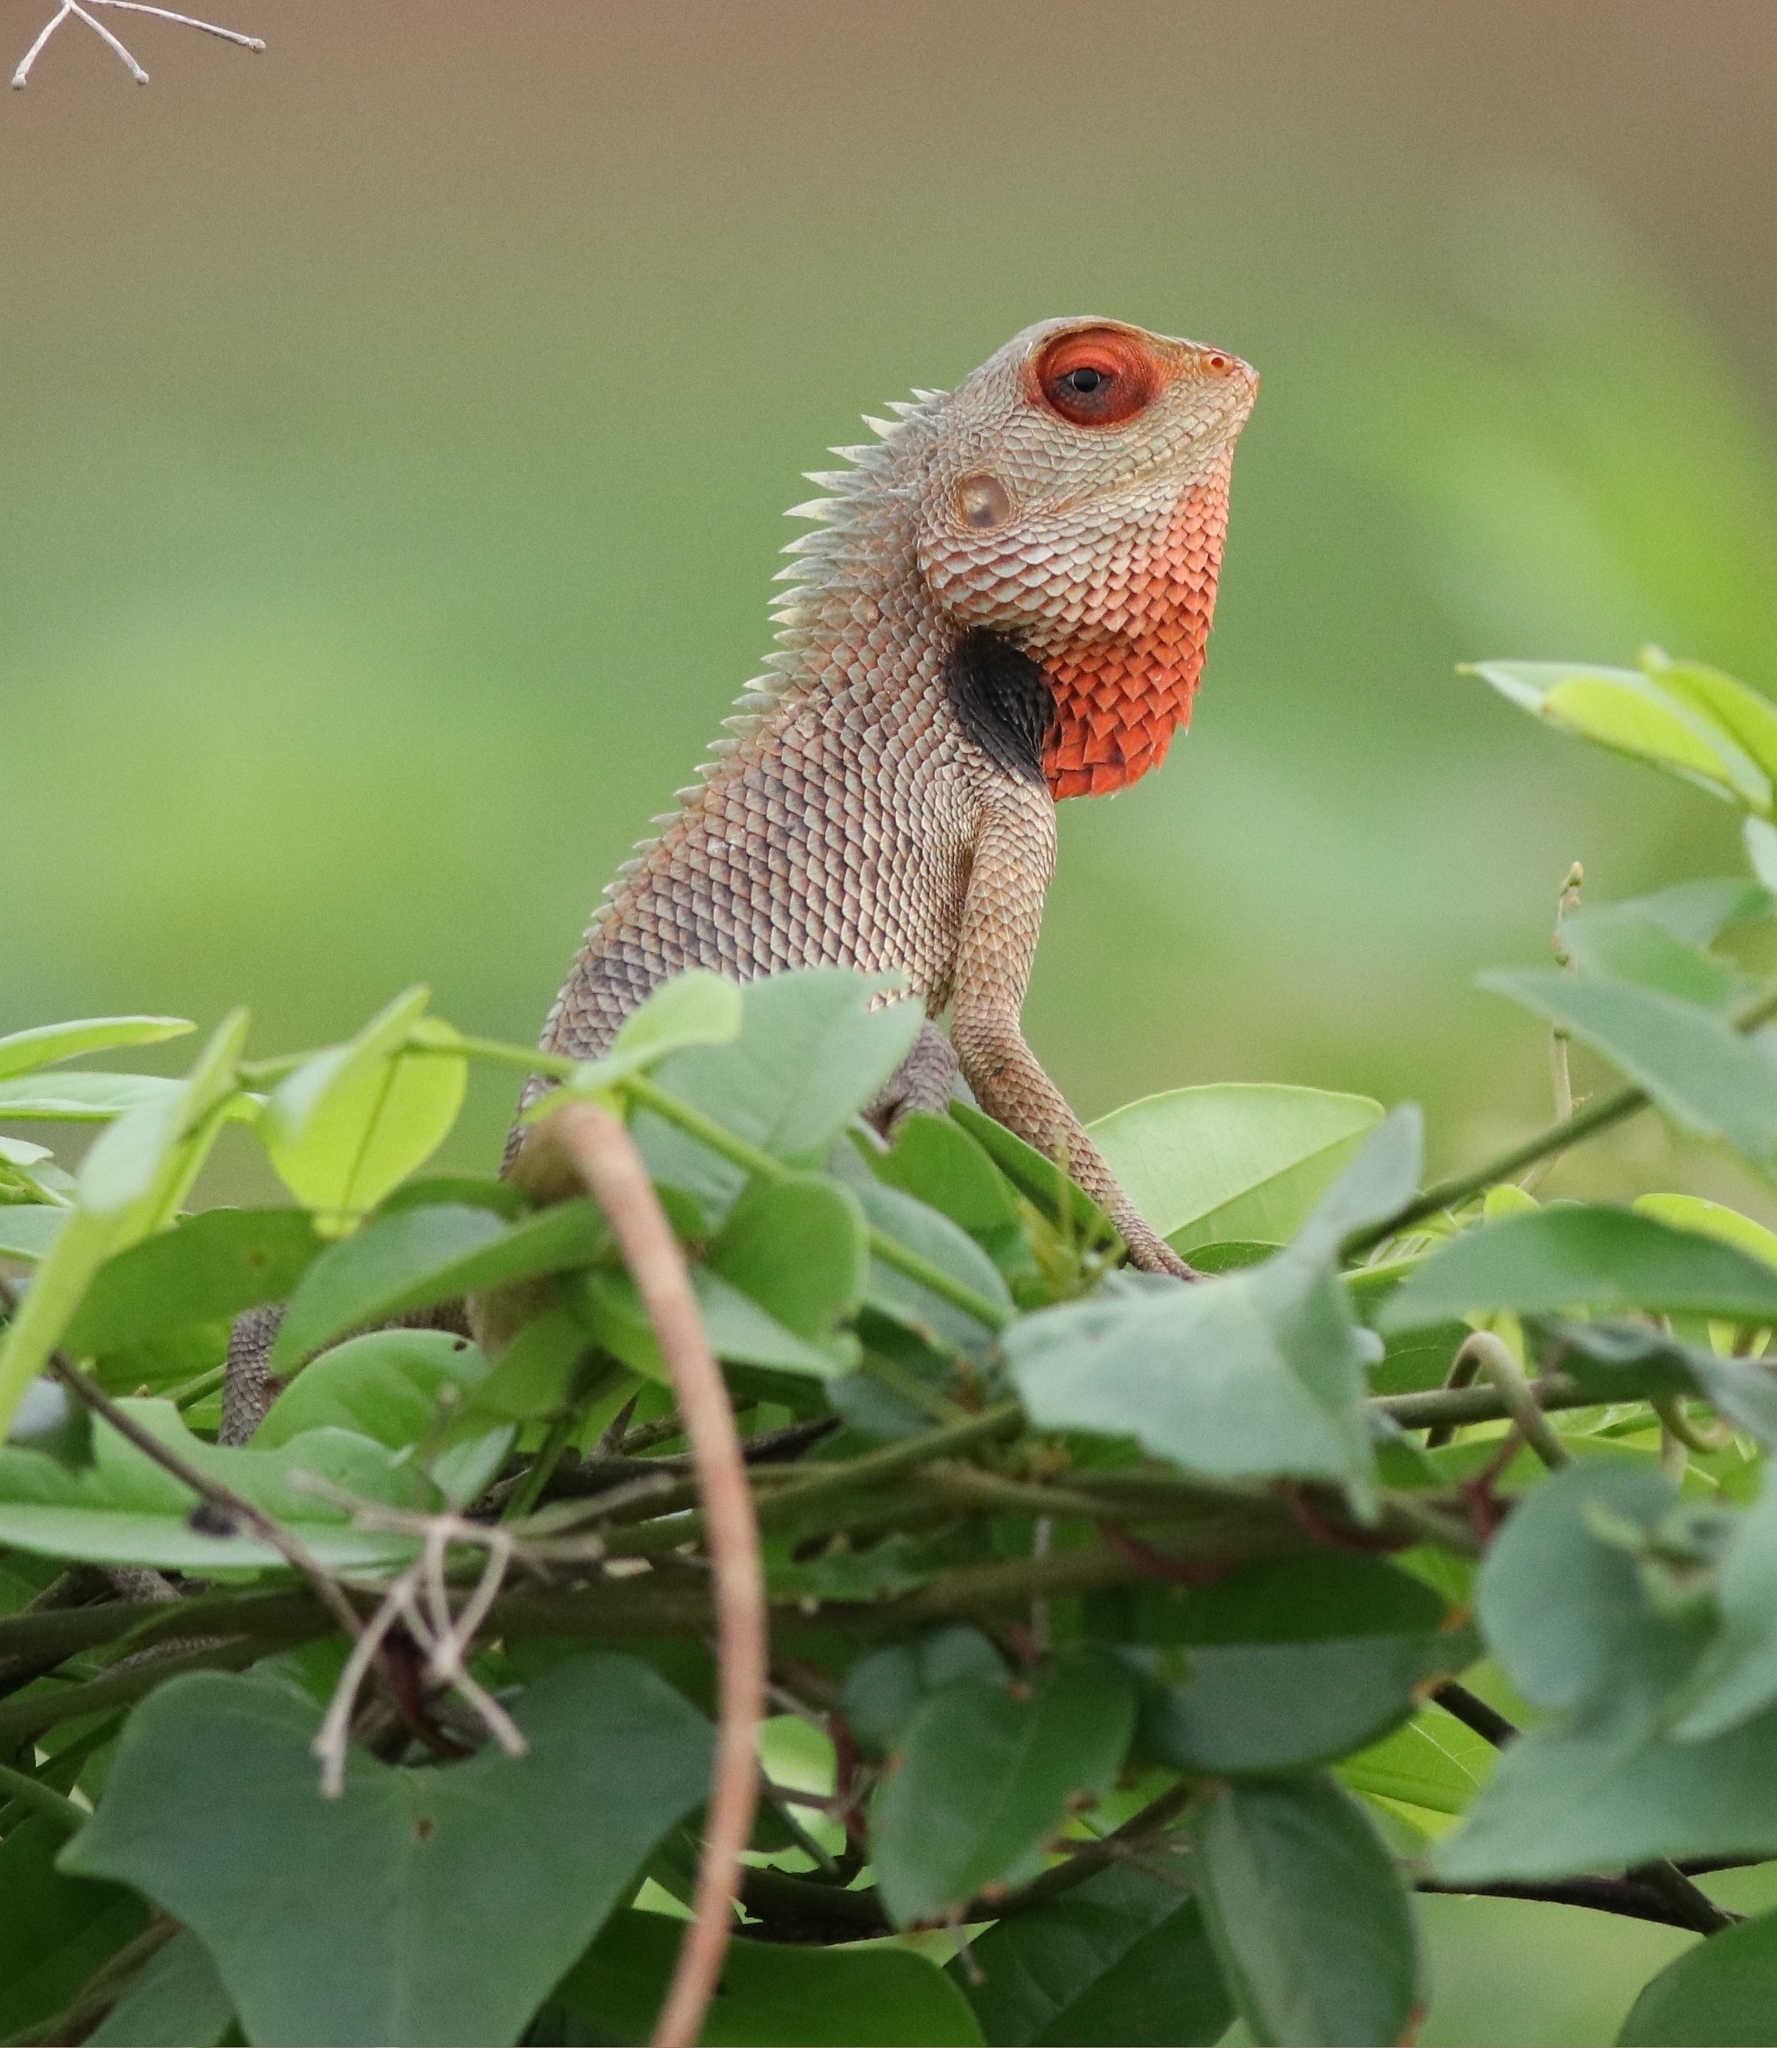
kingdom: Animalia
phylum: Chordata
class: Squamata
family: Agamidae
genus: Calotes
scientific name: Calotes versicolor
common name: Oriental garden lizard
